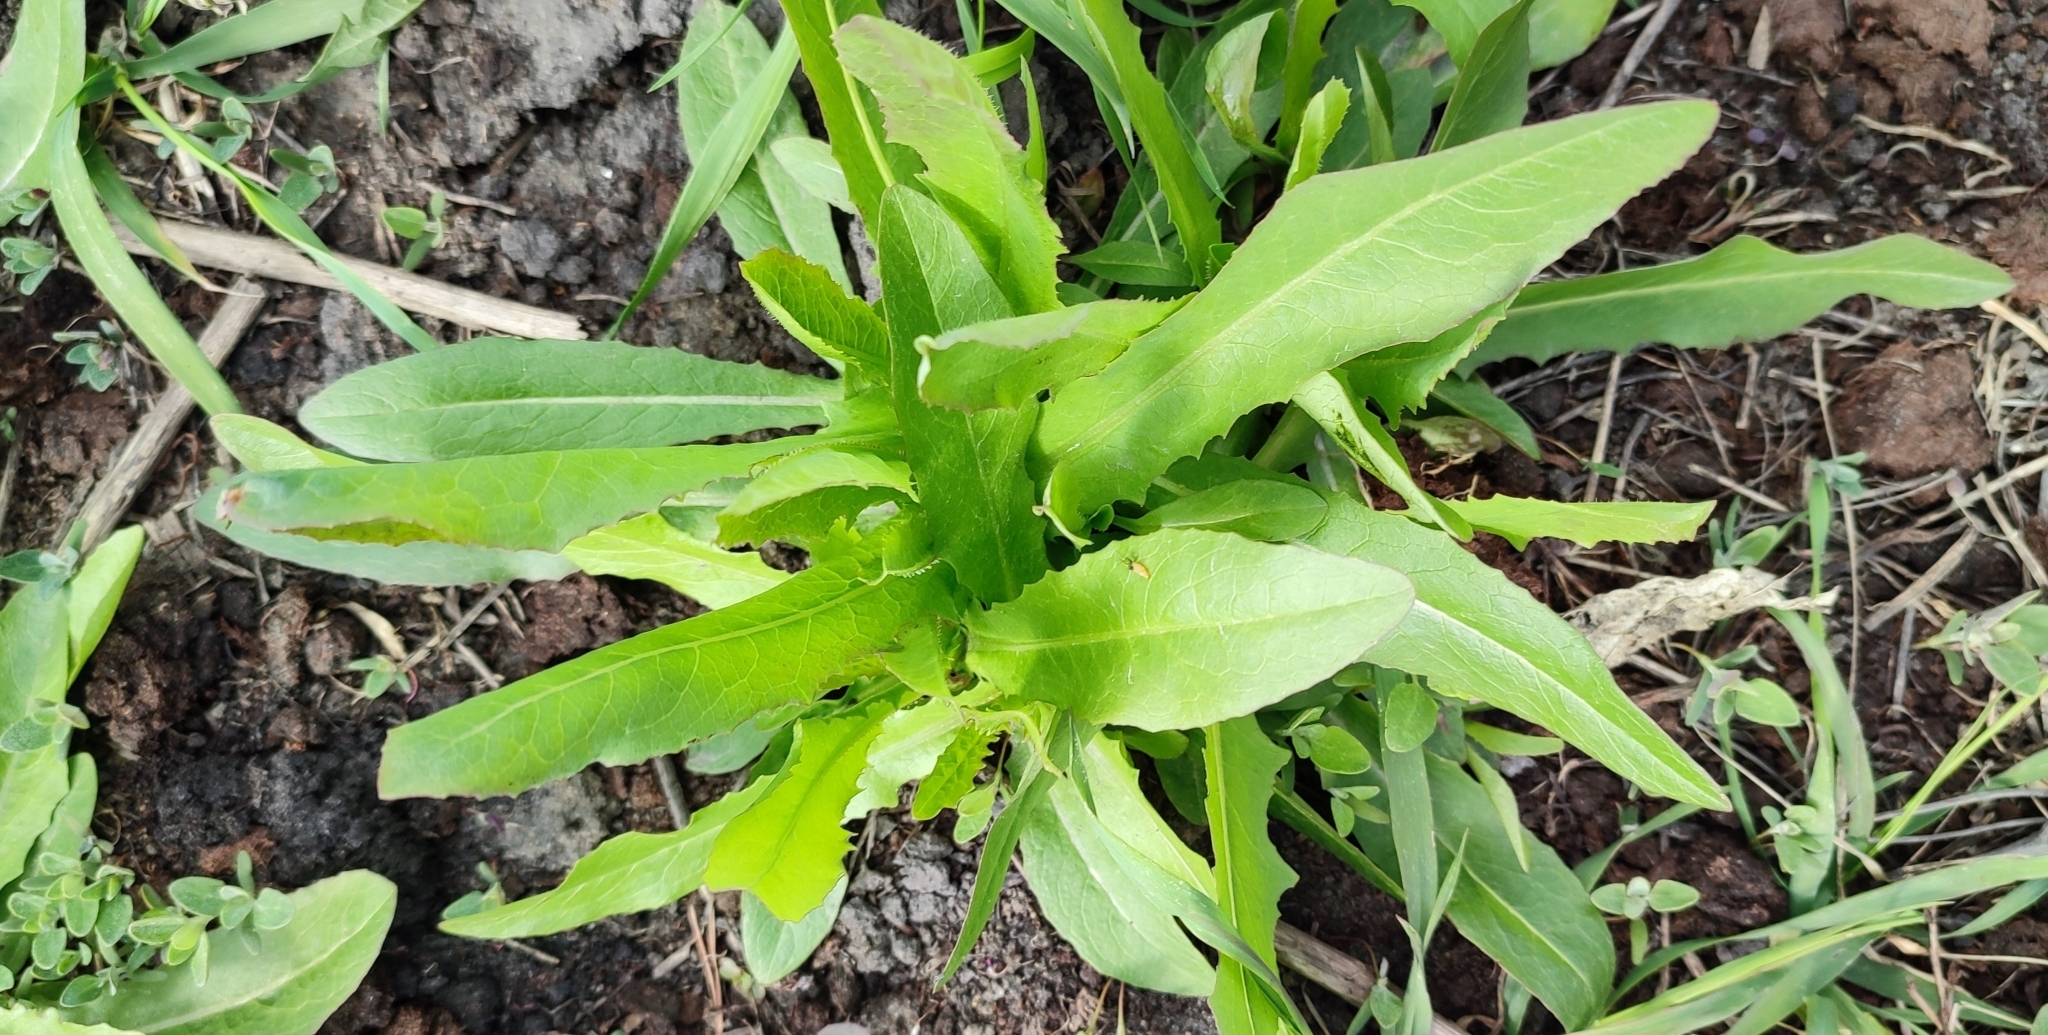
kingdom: Plantae
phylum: Tracheophyta
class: Magnoliopsida
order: Asterales
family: Asteraceae
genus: Sonchus
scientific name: Sonchus arvensis
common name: Perennial sow-thistle
